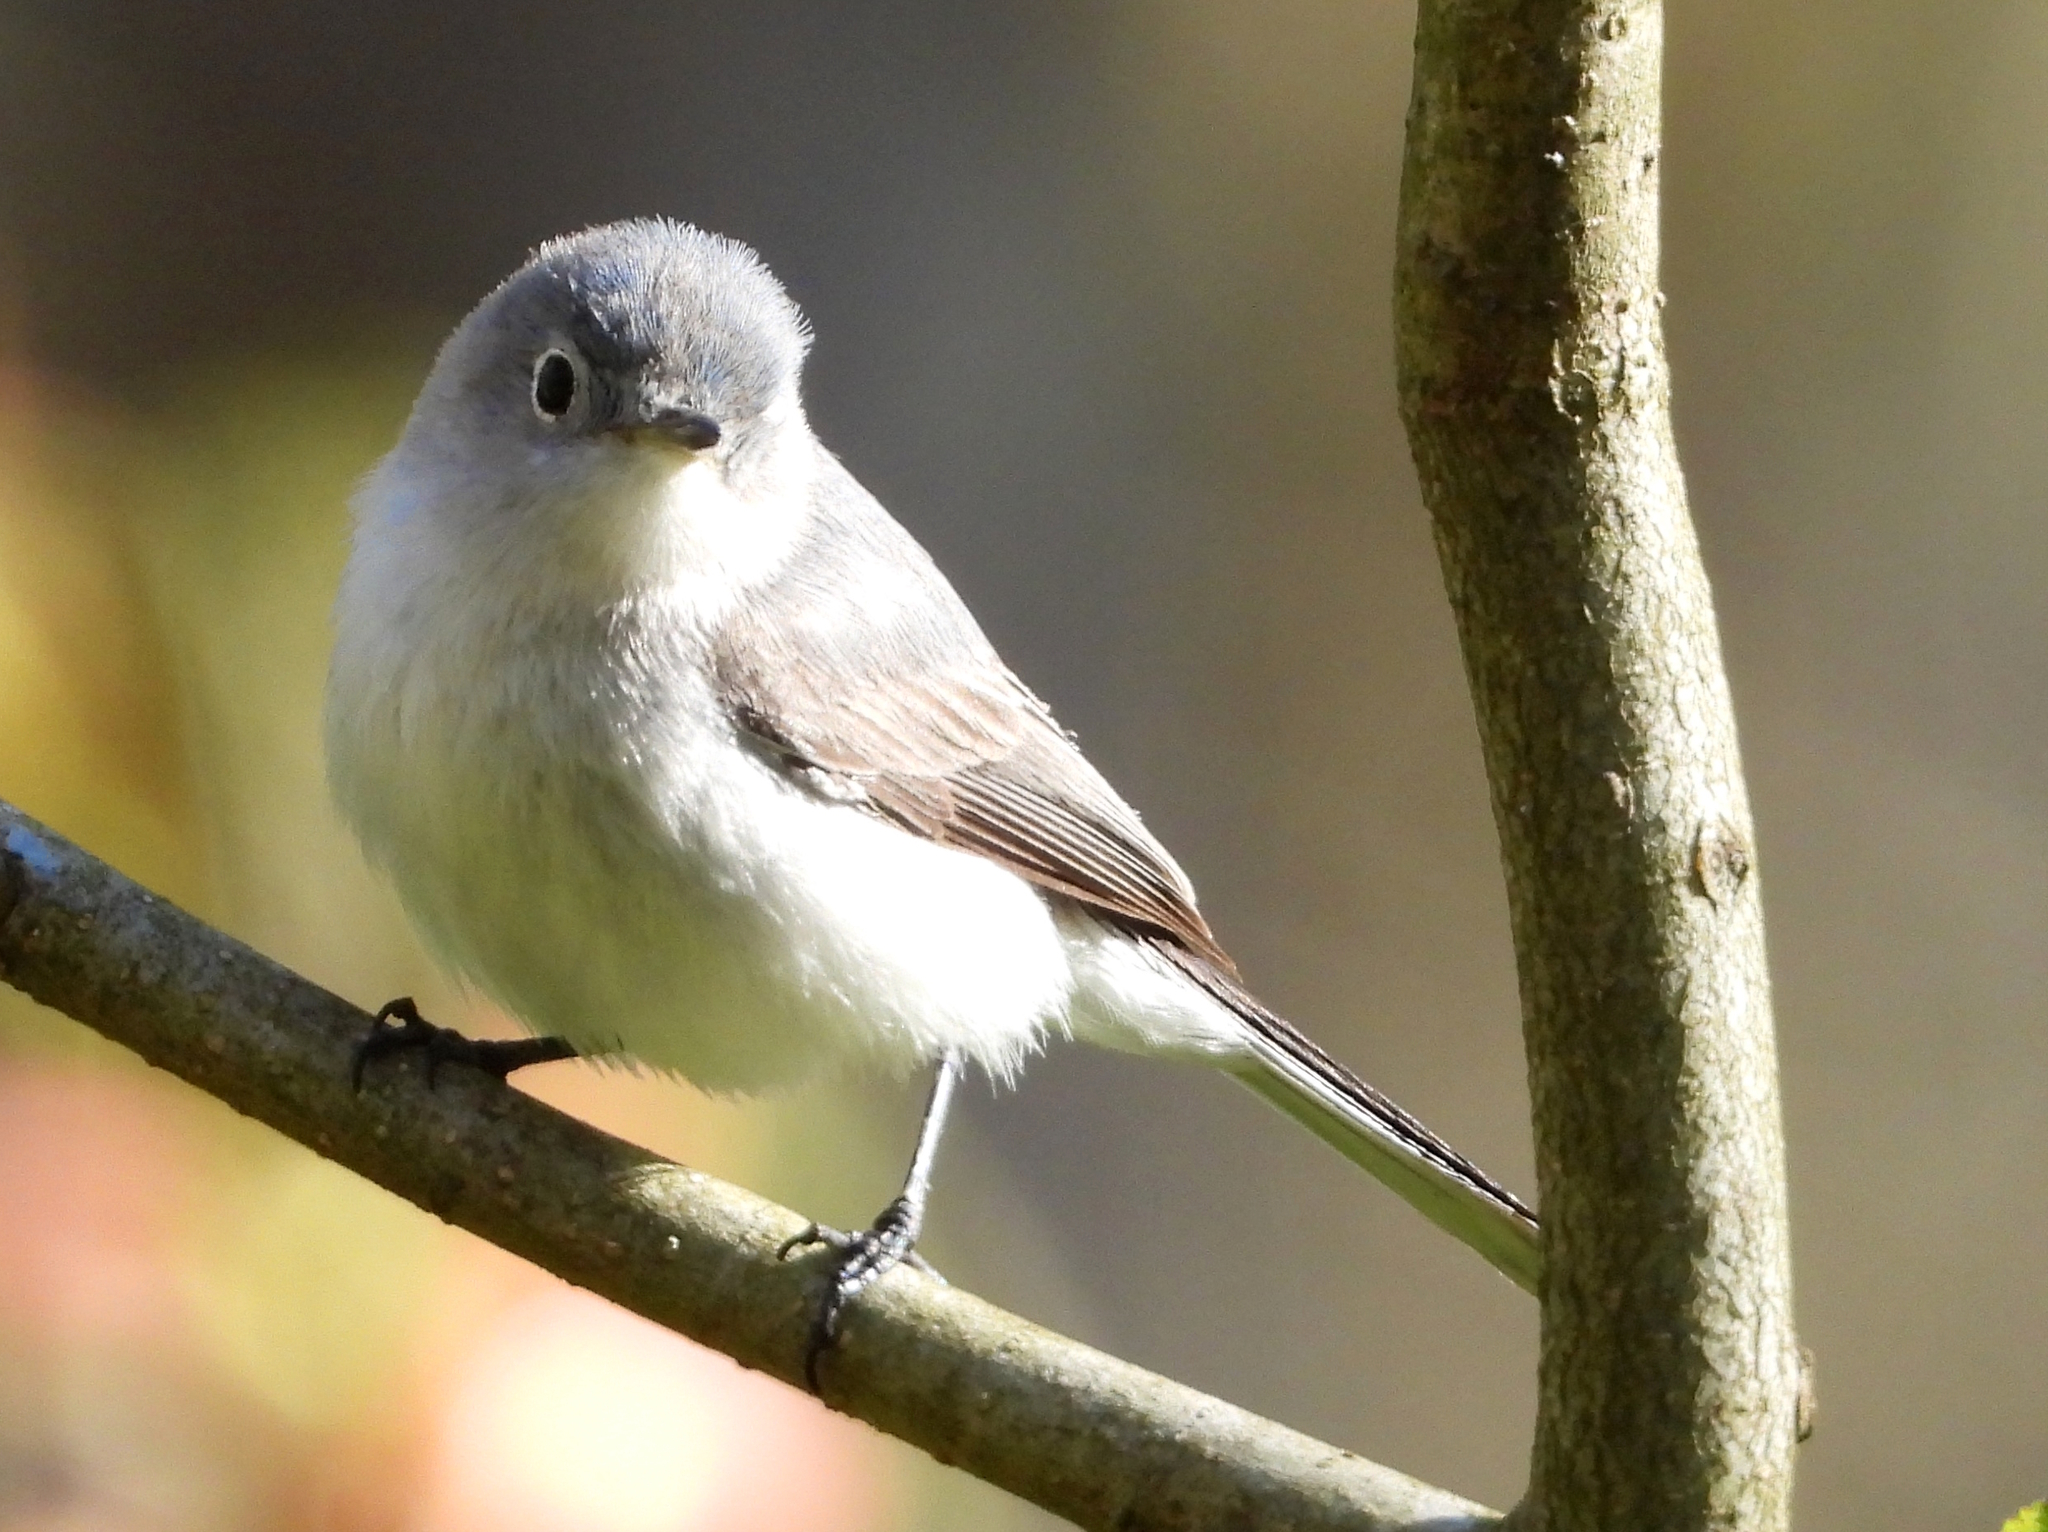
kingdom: Animalia
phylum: Chordata
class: Aves
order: Passeriformes
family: Polioptilidae
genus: Polioptila
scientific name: Polioptila caerulea
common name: Blue-gray gnatcatcher
